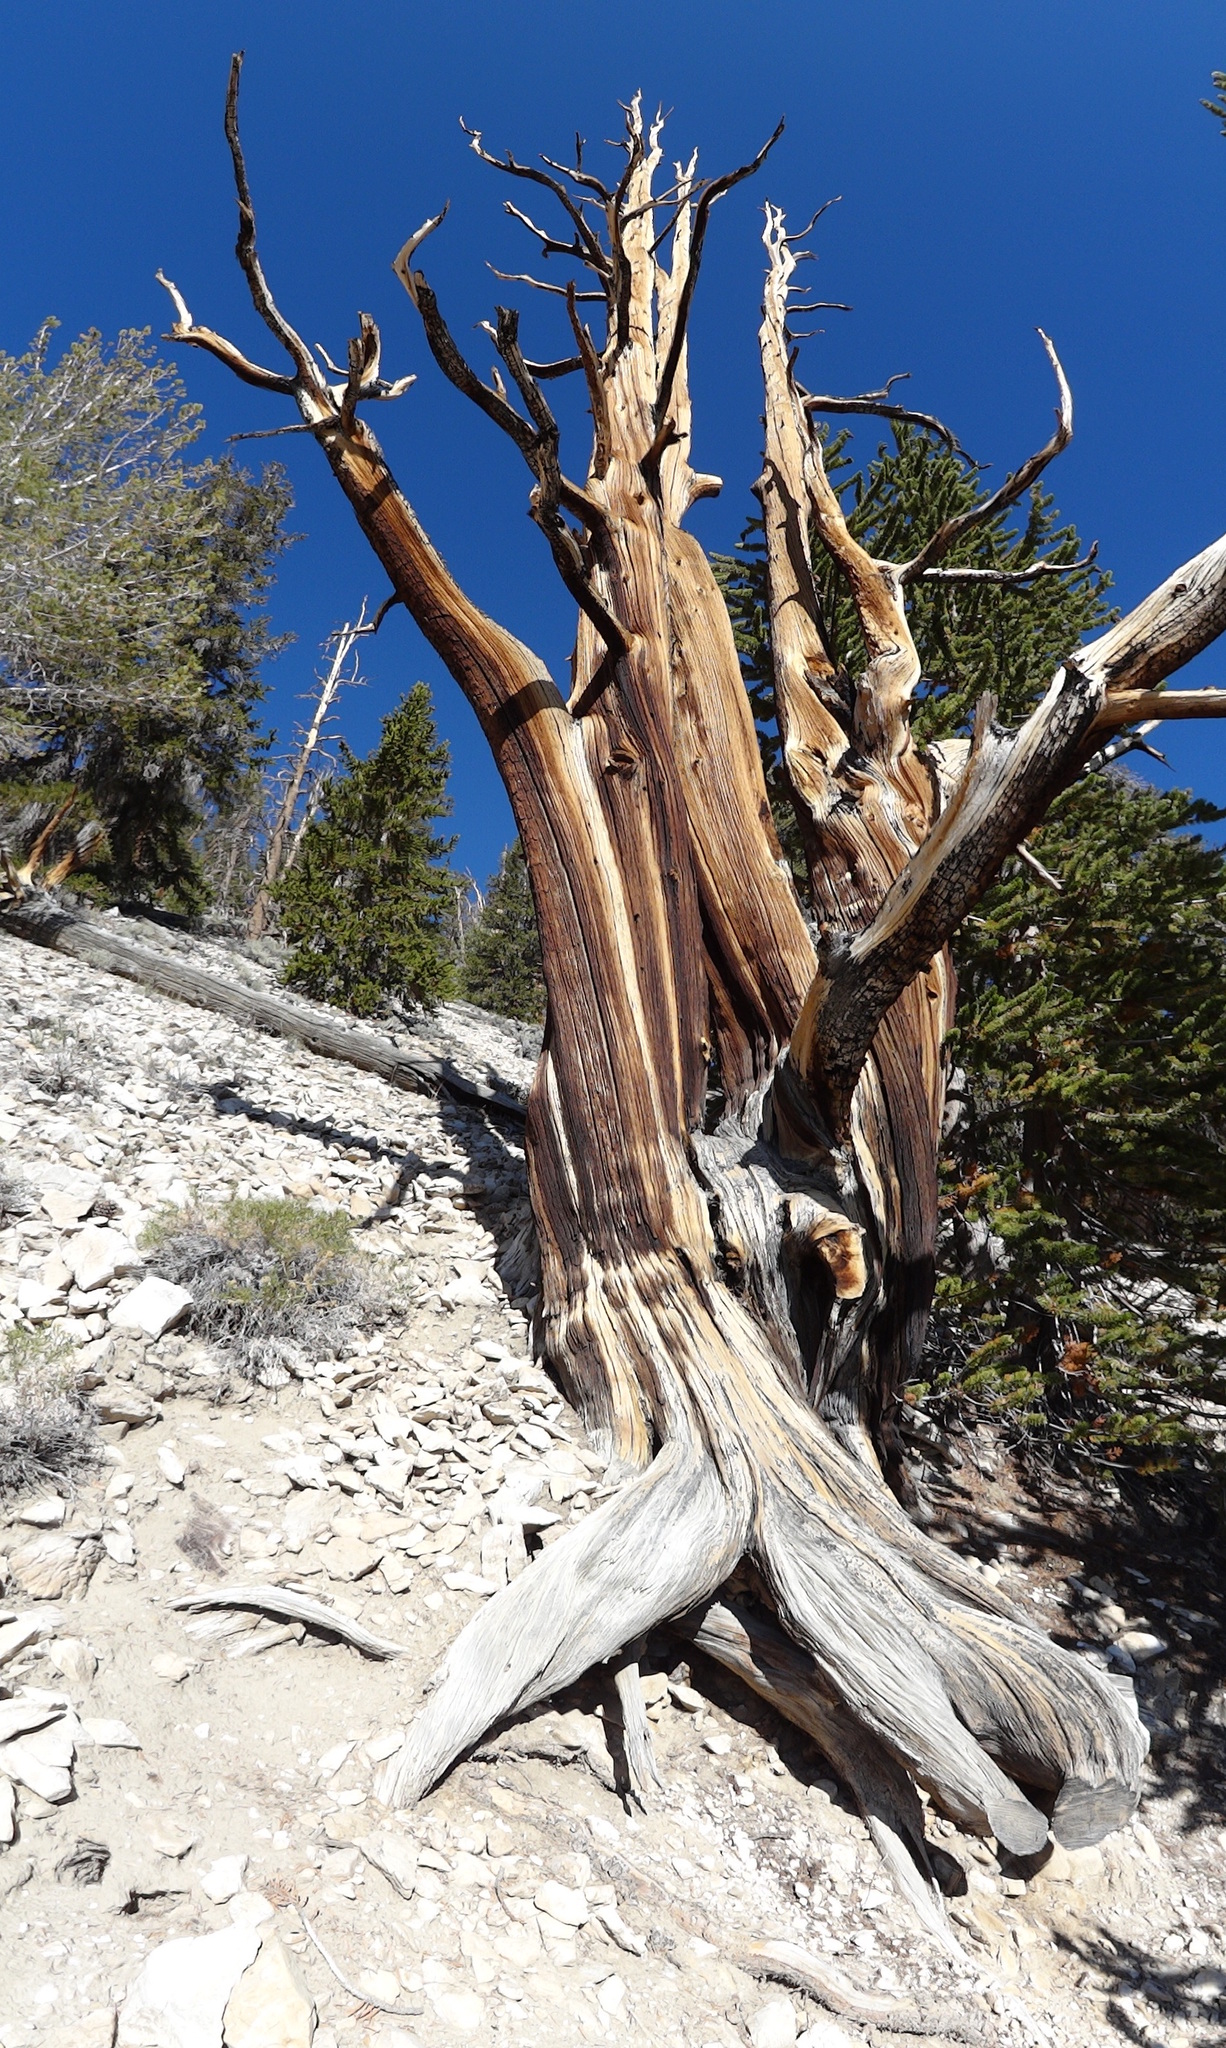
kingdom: Plantae
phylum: Tracheophyta
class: Pinopsida
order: Pinales
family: Pinaceae
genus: Pinus
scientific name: Pinus longaeva
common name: Intermountain bristlecone pine
